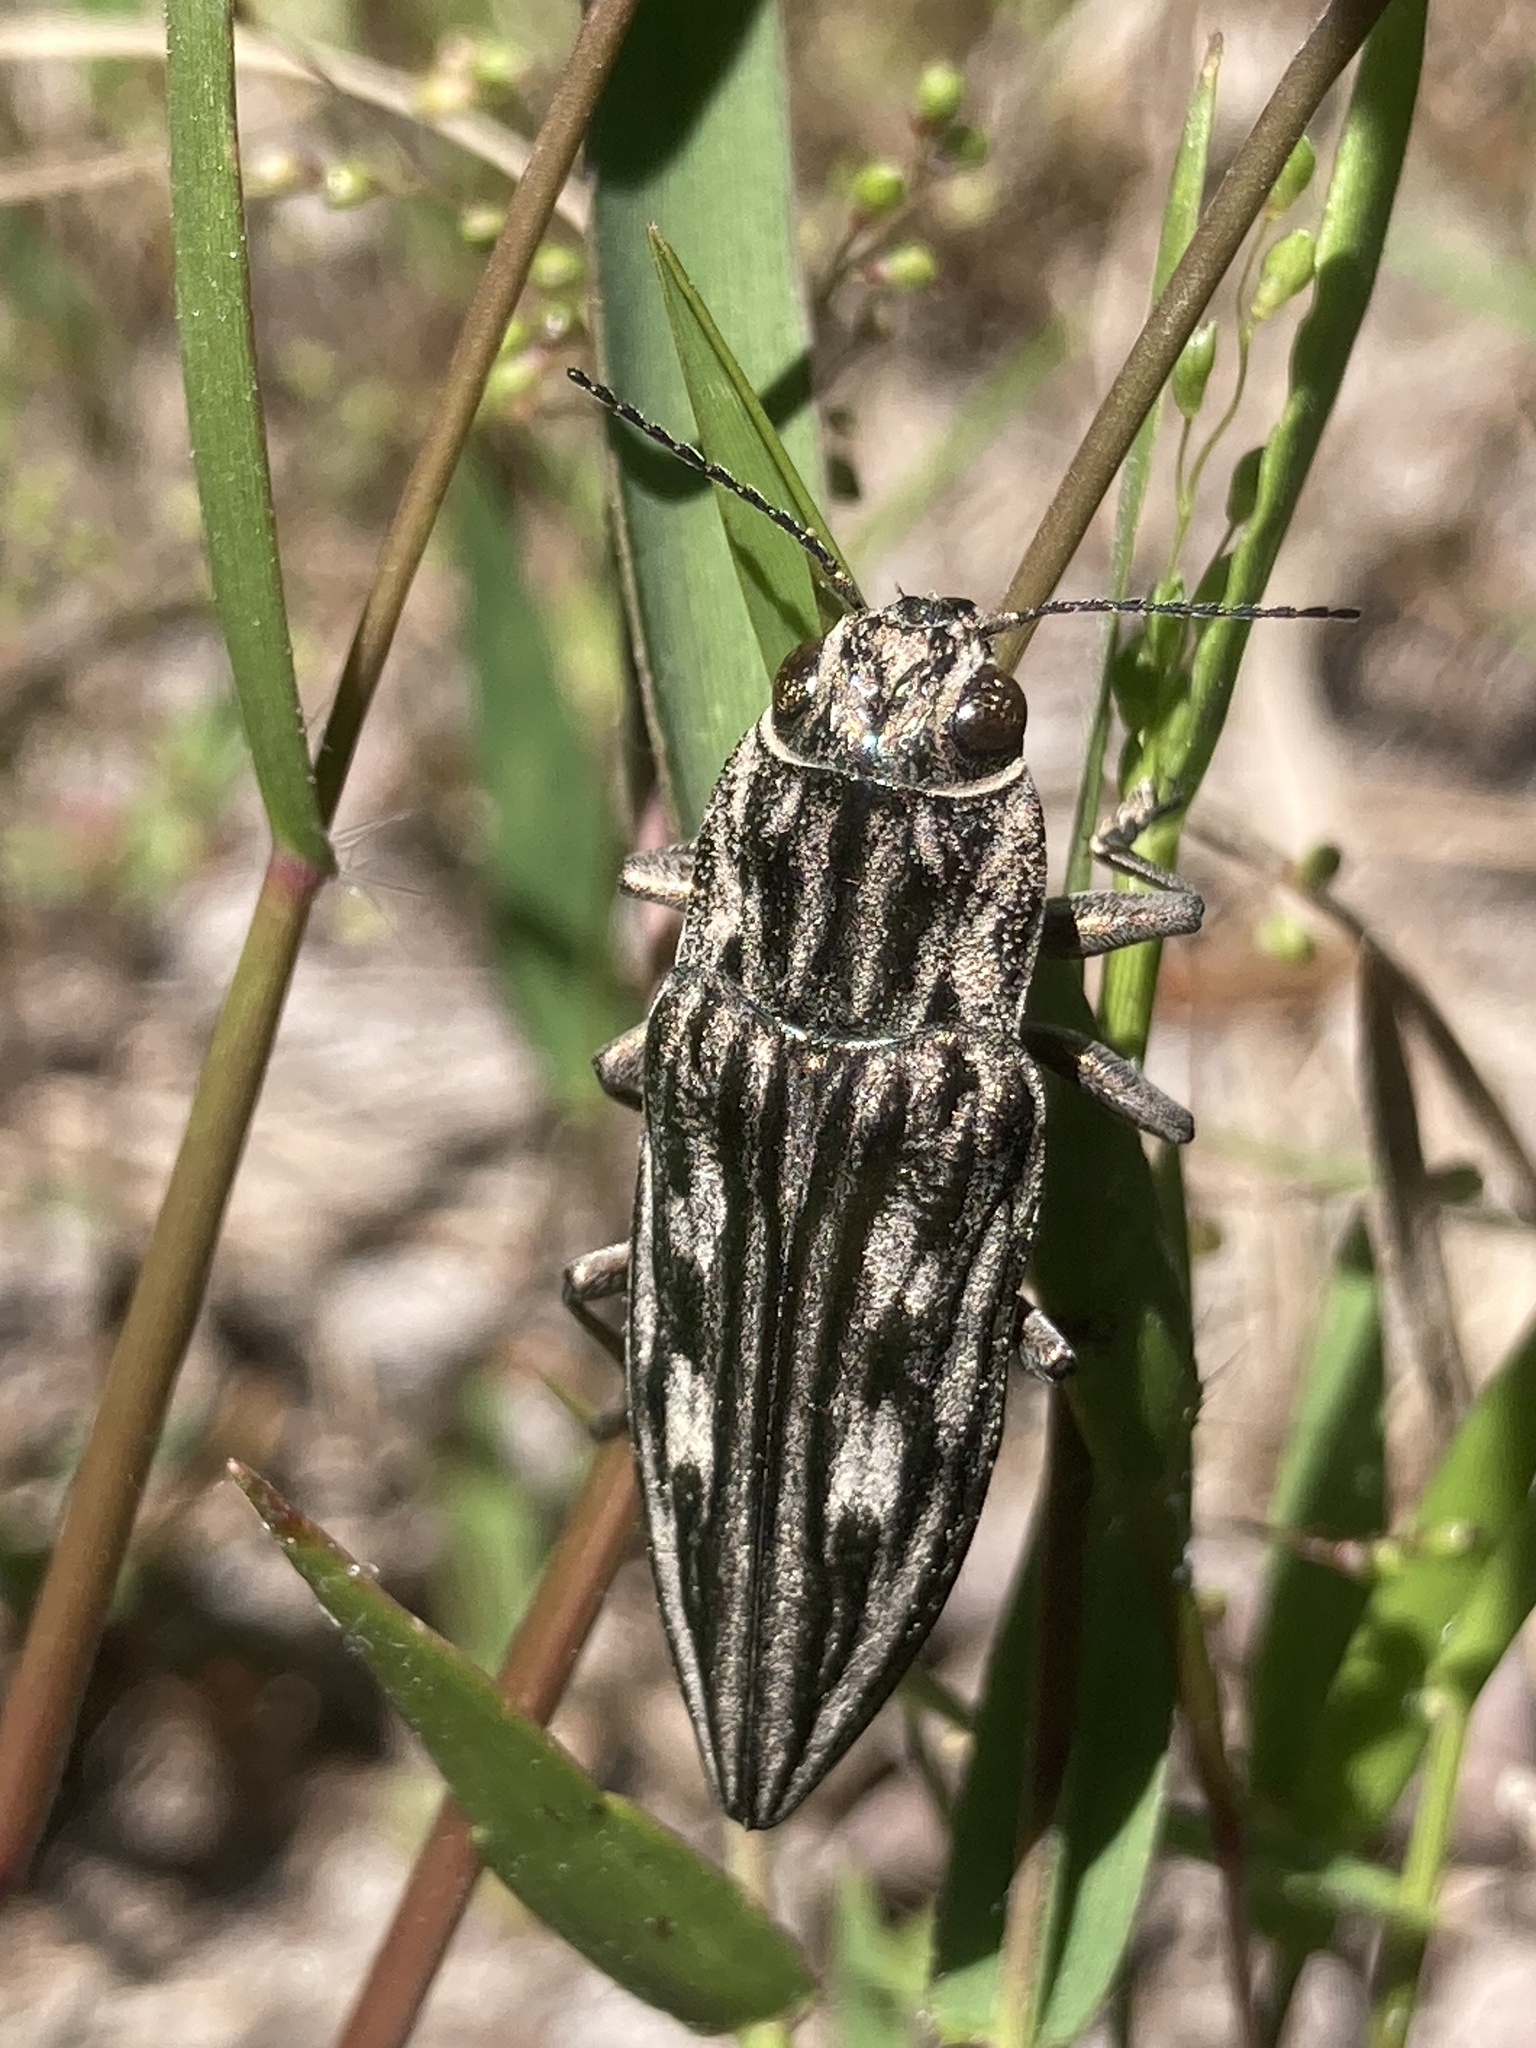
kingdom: Animalia
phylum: Arthropoda
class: Insecta
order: Coleoptera
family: Buprestidae
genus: Chalcophora
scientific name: Chalcophora georgiana
